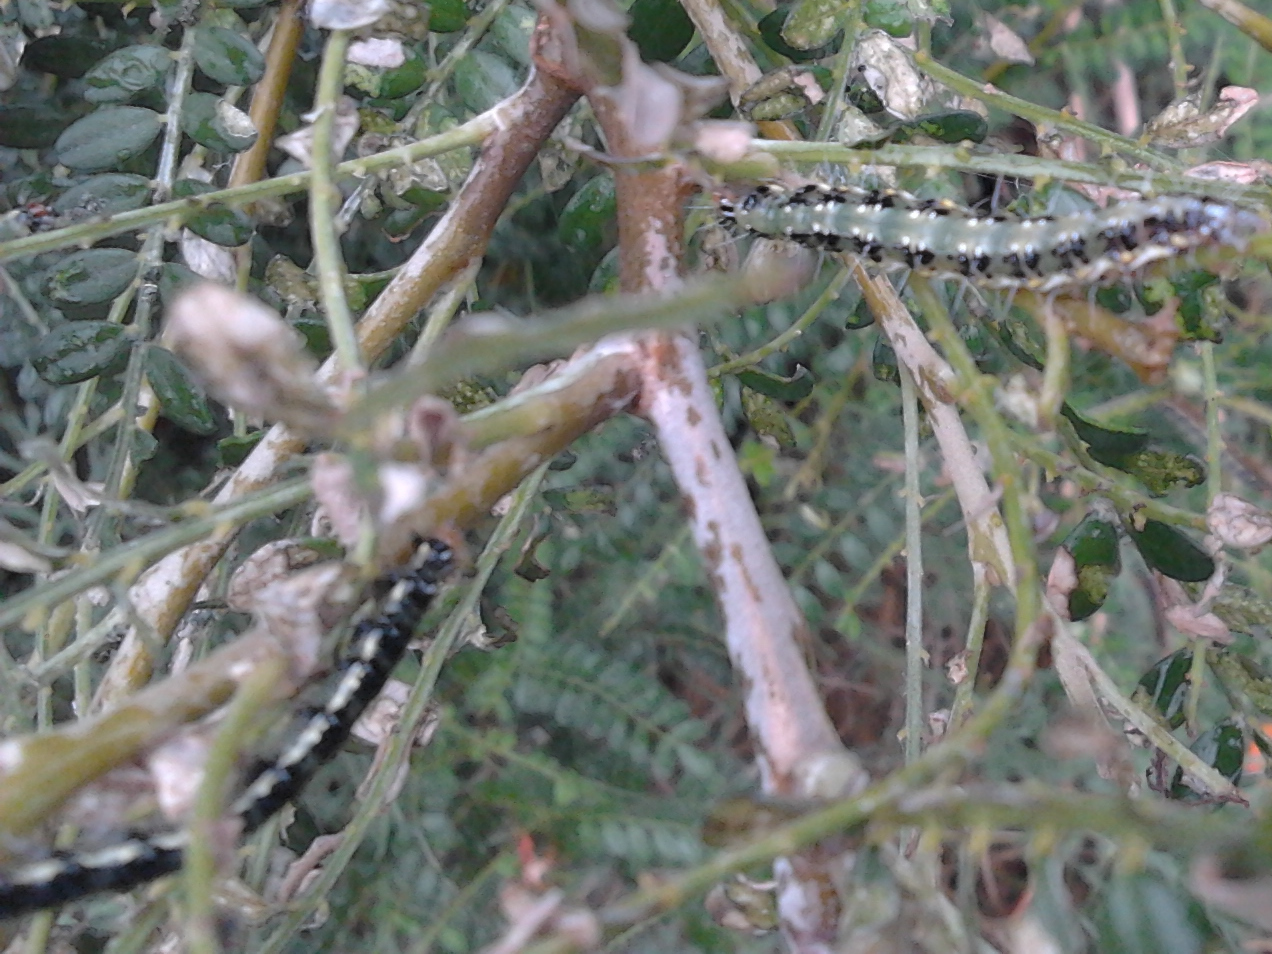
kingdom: Animalia
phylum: Arthropoda
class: Insecta
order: Lepidoptera
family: Crambidae
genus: Uresiphita
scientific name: Uresiphita
